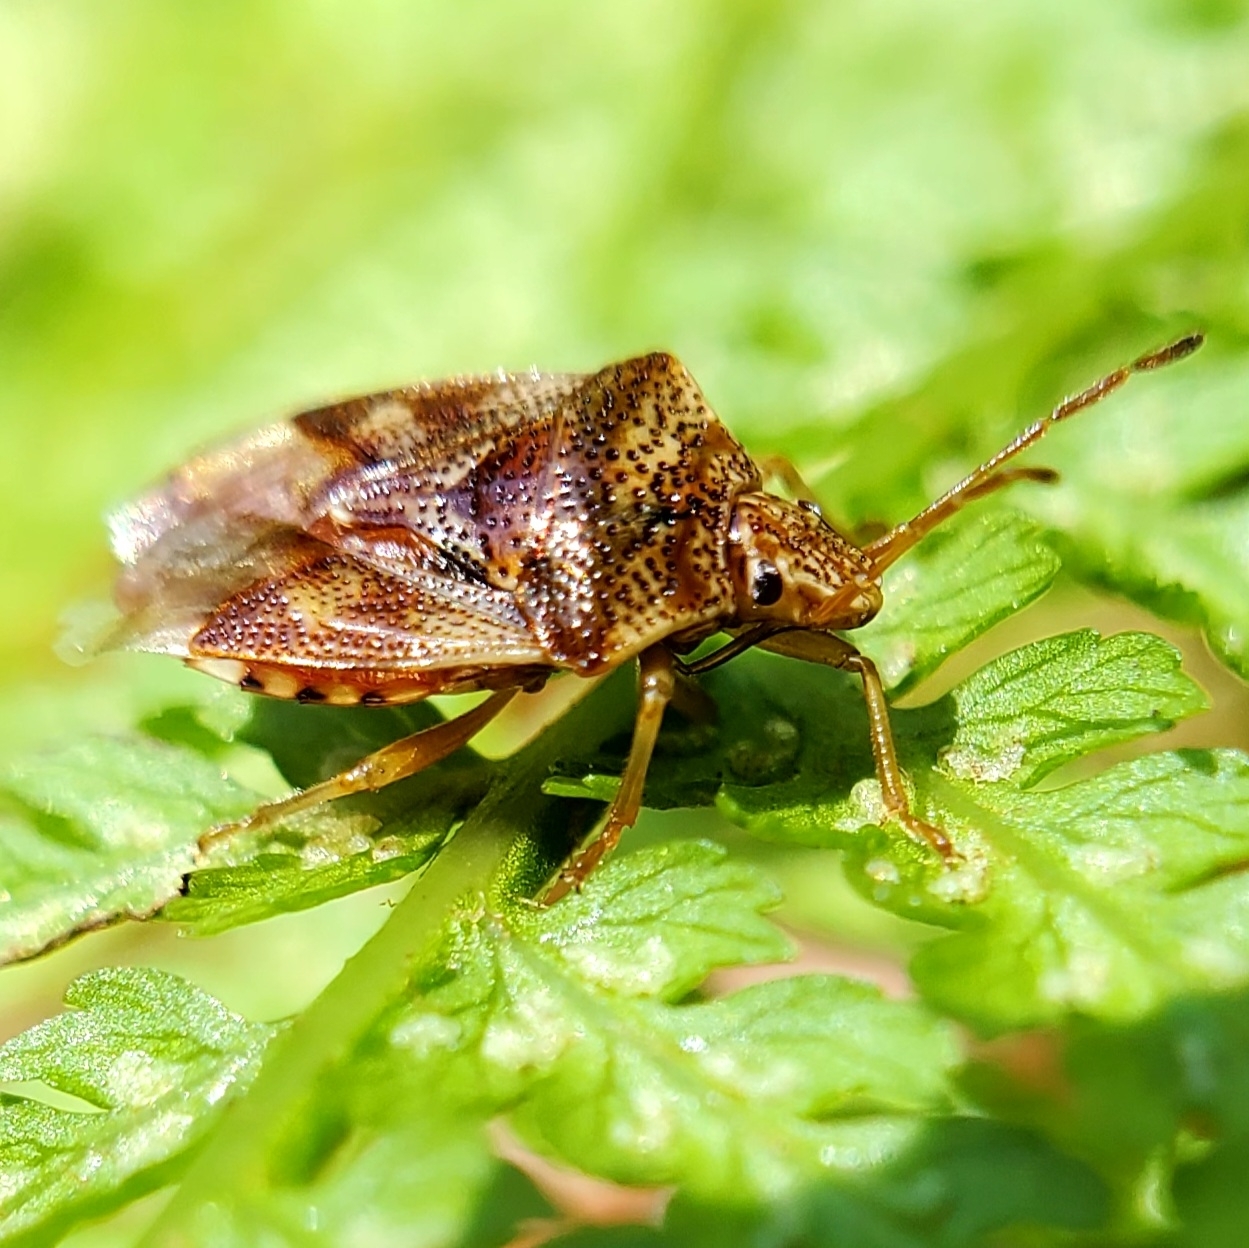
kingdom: Animalia
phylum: Arthropoda
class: Insecta
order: Hemiptera
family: Acanthosomatidae
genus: Elasmucha
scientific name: Elasmucha lateralis
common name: Shield bug
